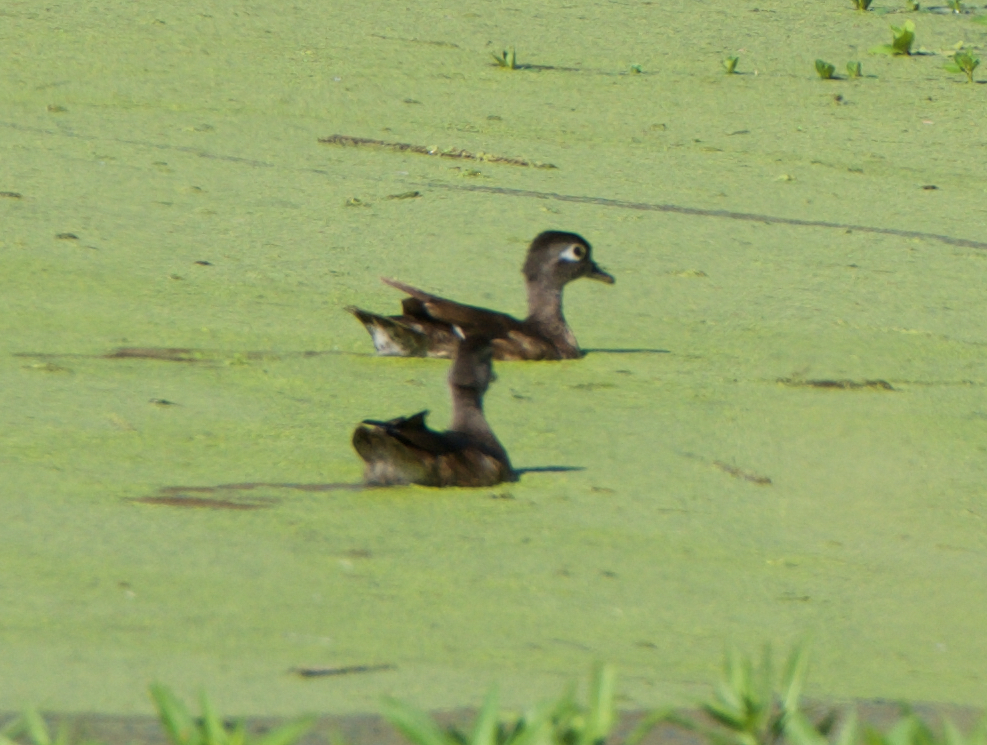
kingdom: Animalia
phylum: Chordata
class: Aves
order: Anseriformes
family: Anatidae
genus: Aix
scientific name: Aix sponsa
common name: Wood duck
